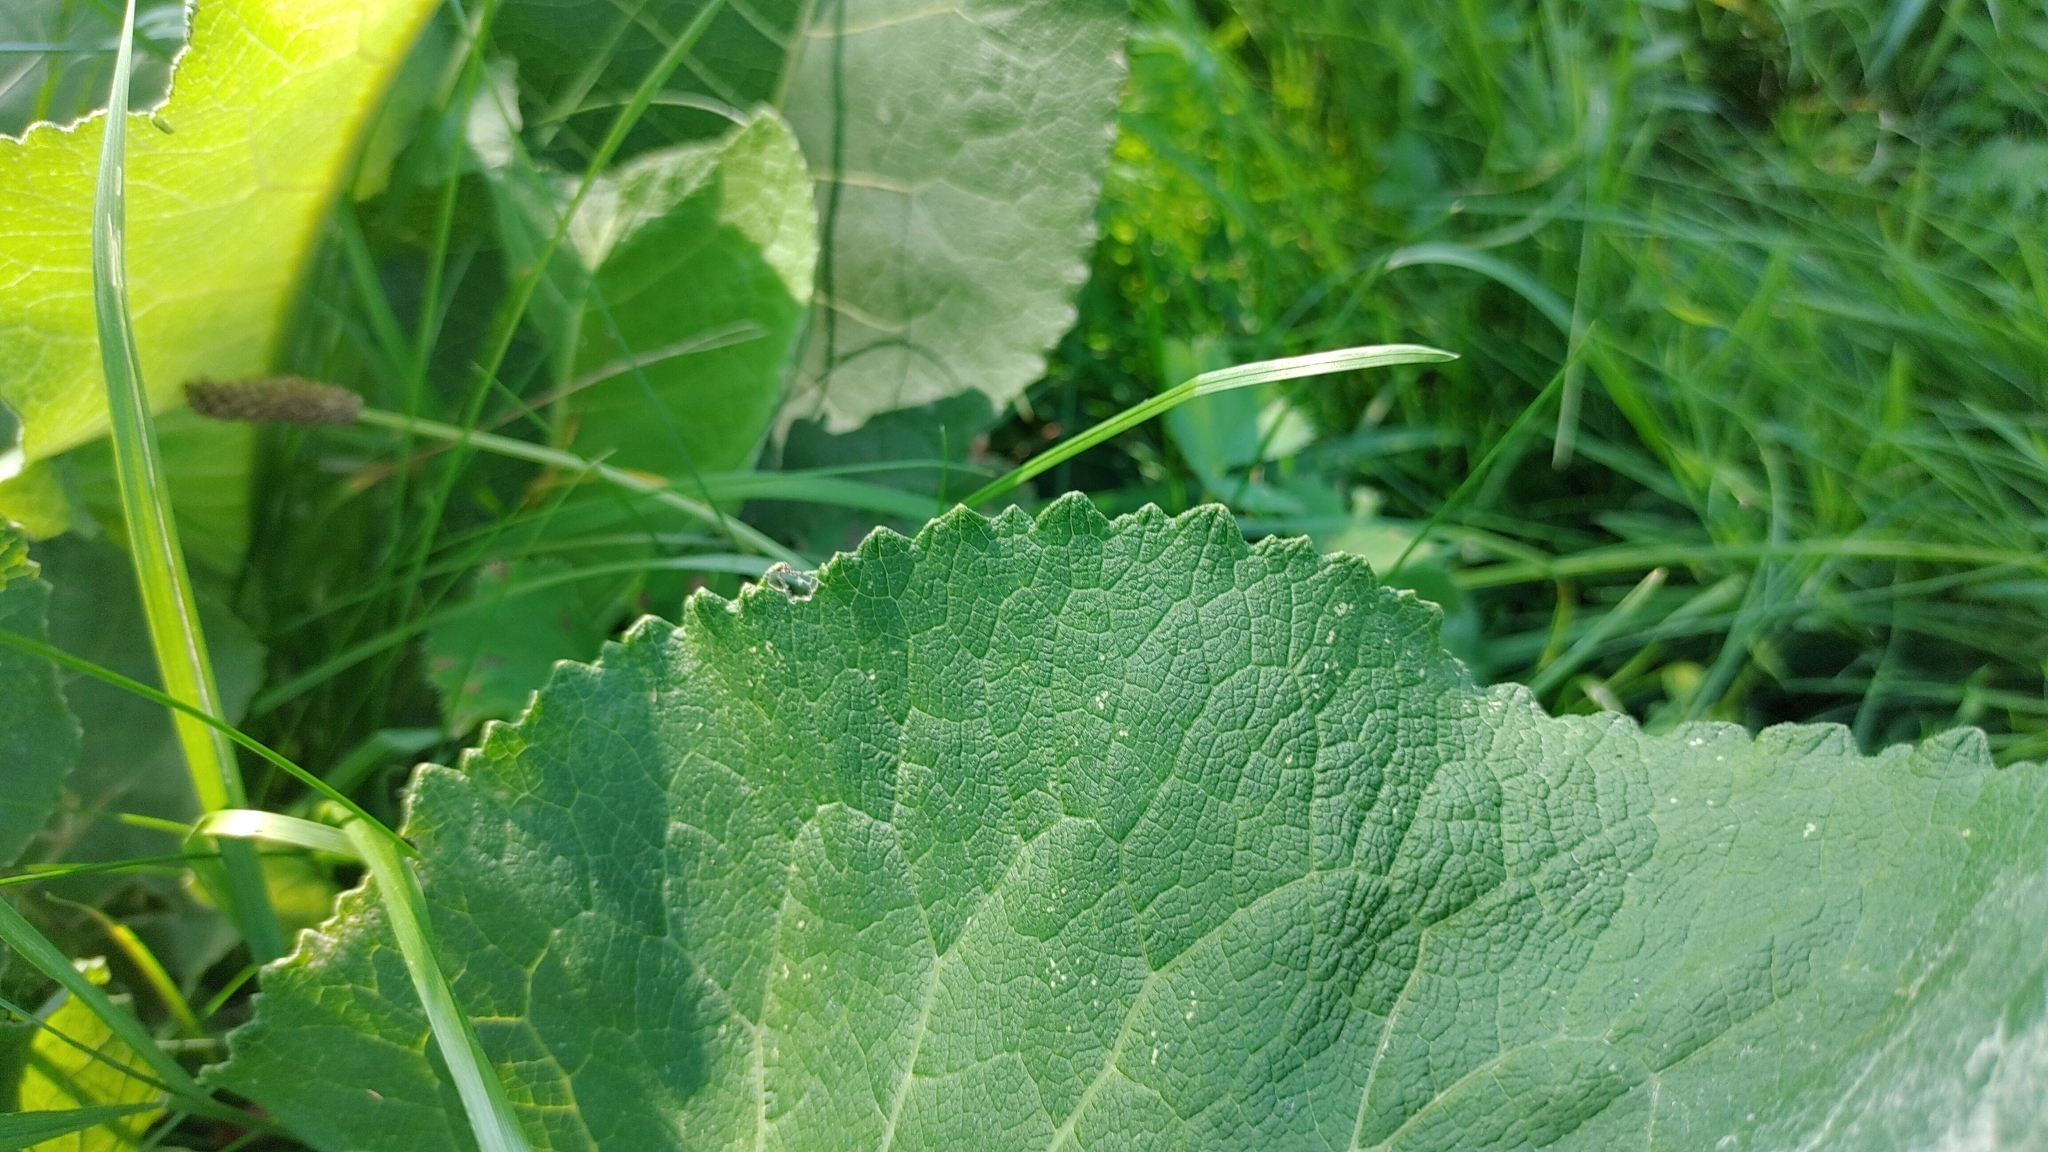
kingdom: Plantae
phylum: Tracheophyta
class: Magnoliopsida
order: Brassicales
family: Brassicaceae
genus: Armoracia
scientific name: Armoracia rusticana
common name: Horseradish
